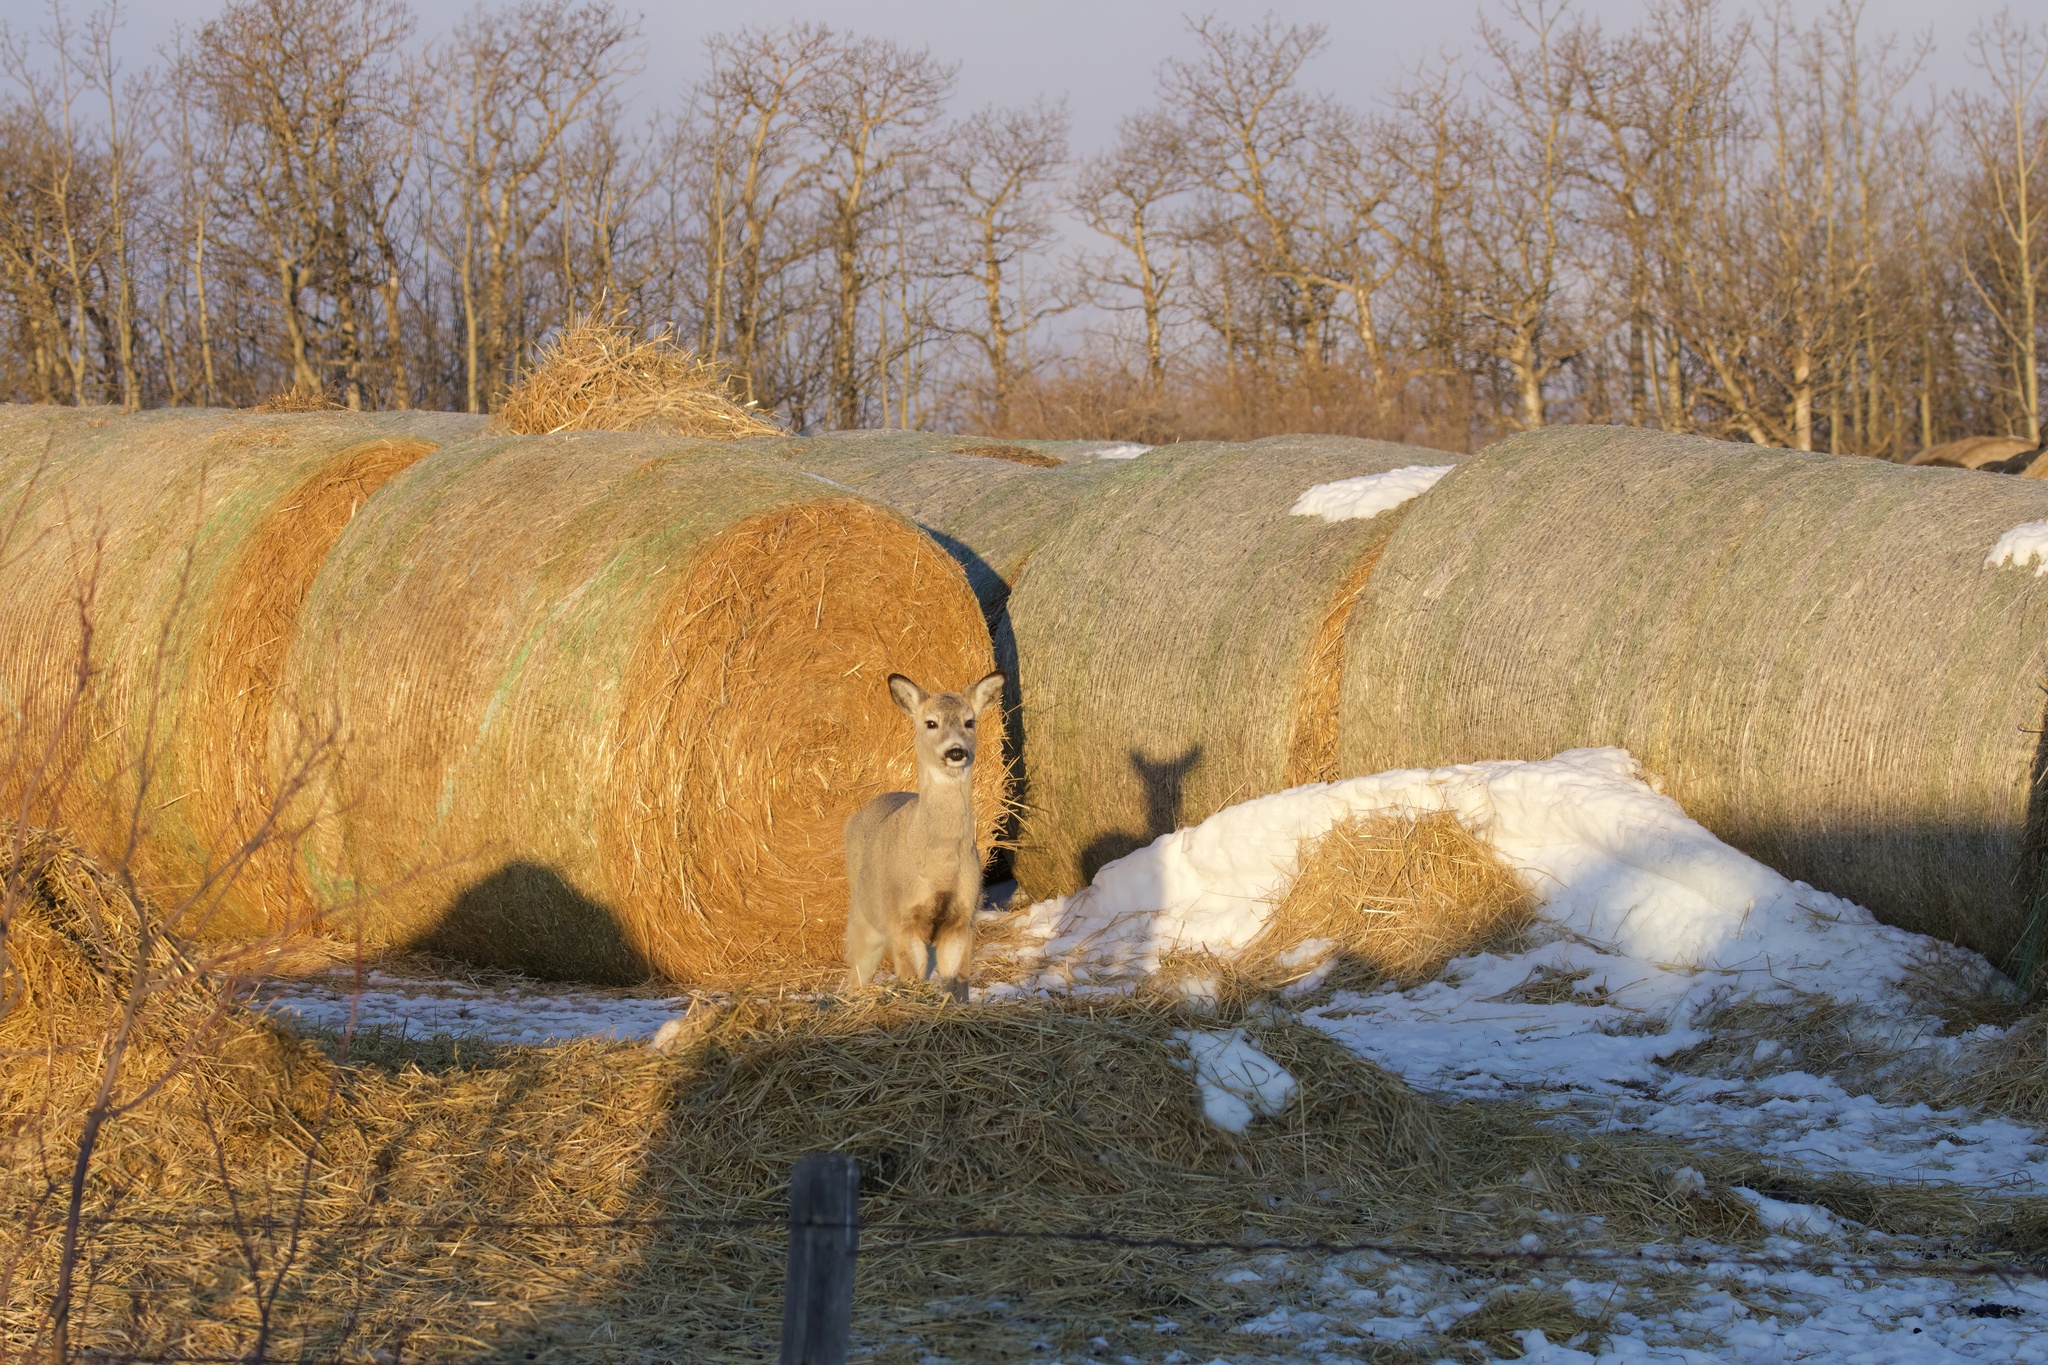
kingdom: Animalia
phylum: Chordata
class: Mammalia
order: Artiodactyla
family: Cervidae
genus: Odocoileus
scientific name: Odocoileus virginianus
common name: White-tailed deer
